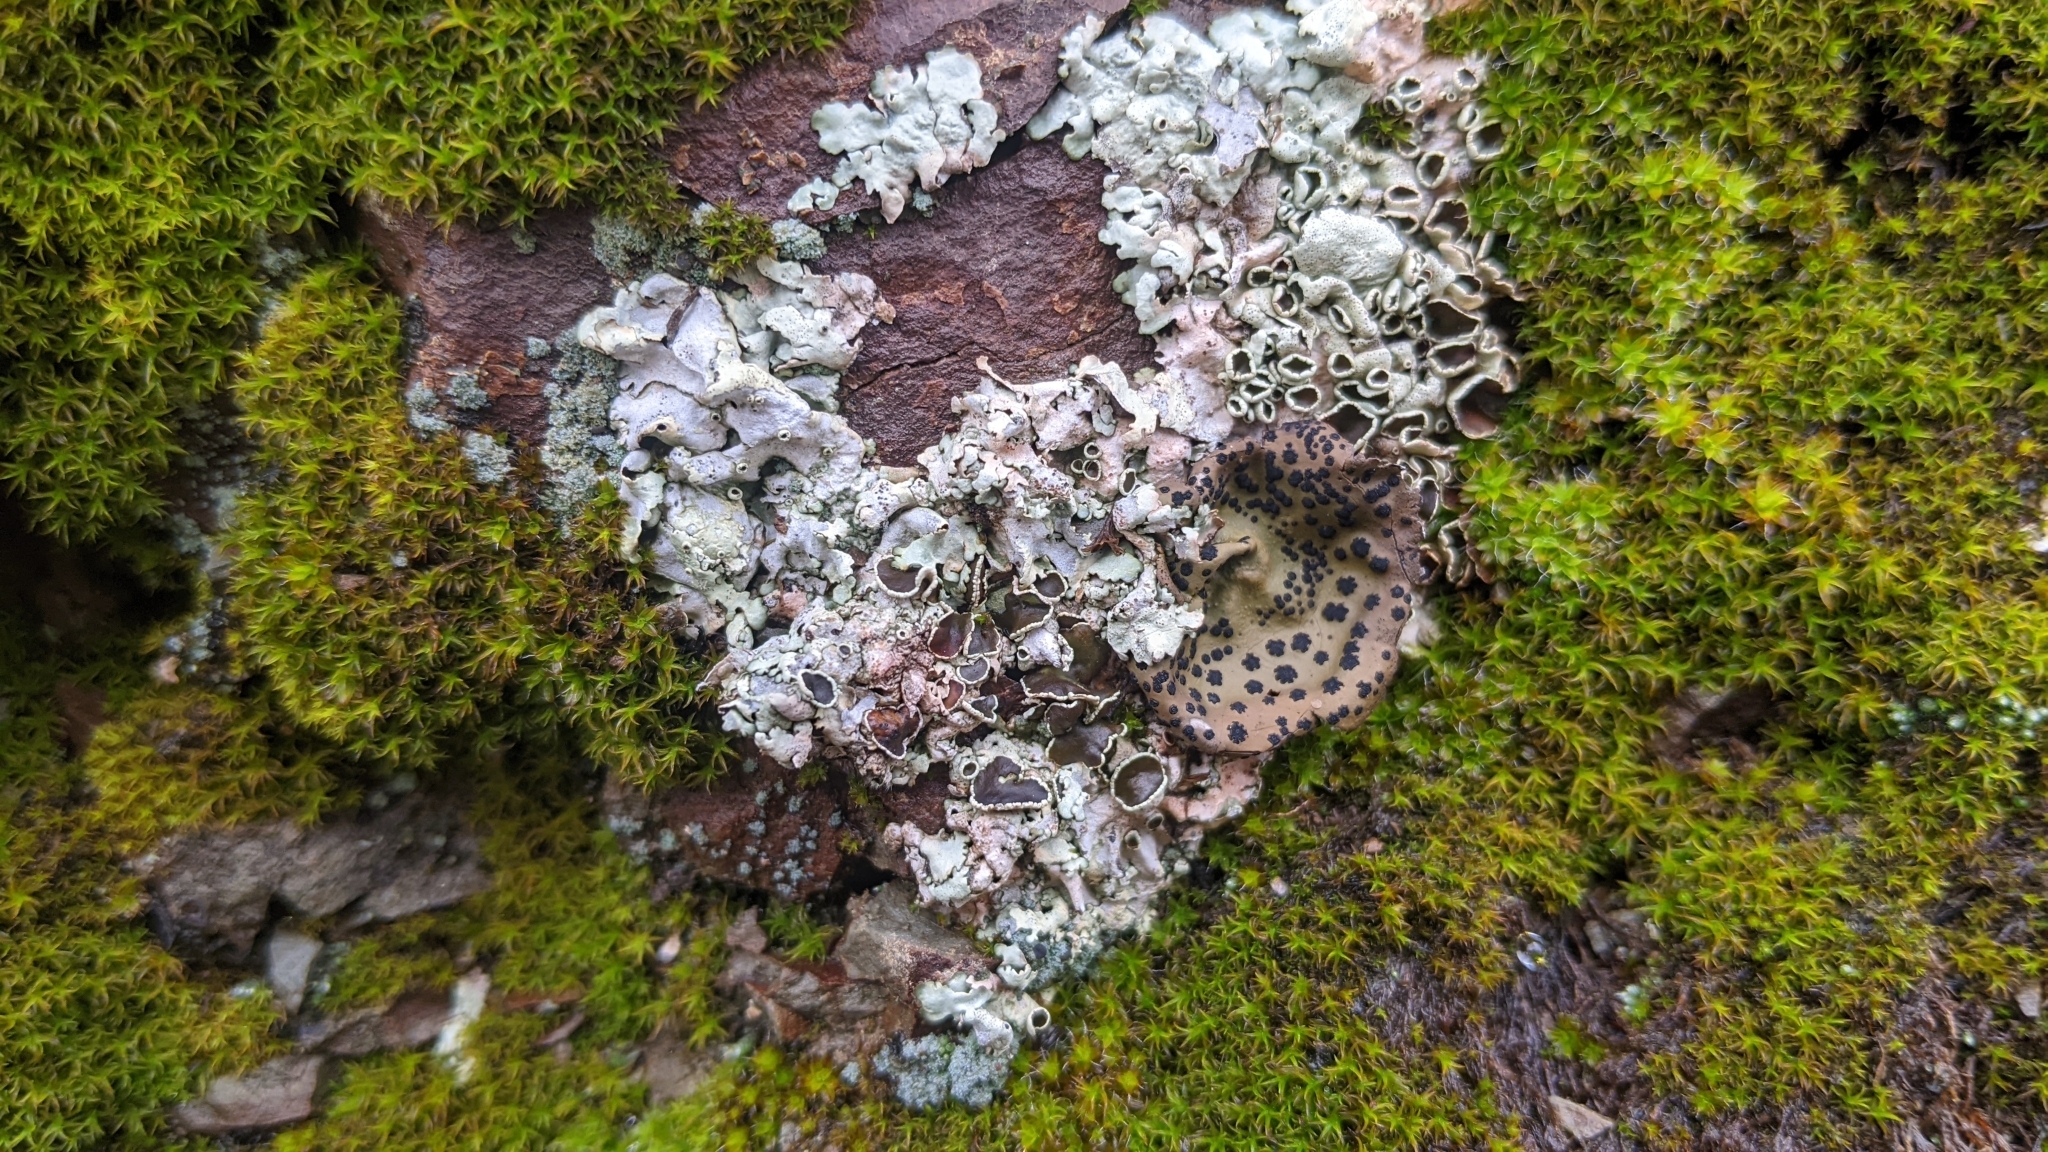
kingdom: Fungi
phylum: Ascomycota
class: Lecanoromycetes
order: Umbilicariales
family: Umbilicariaceae
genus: Umbilicaria
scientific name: Umbilicaria phaea
